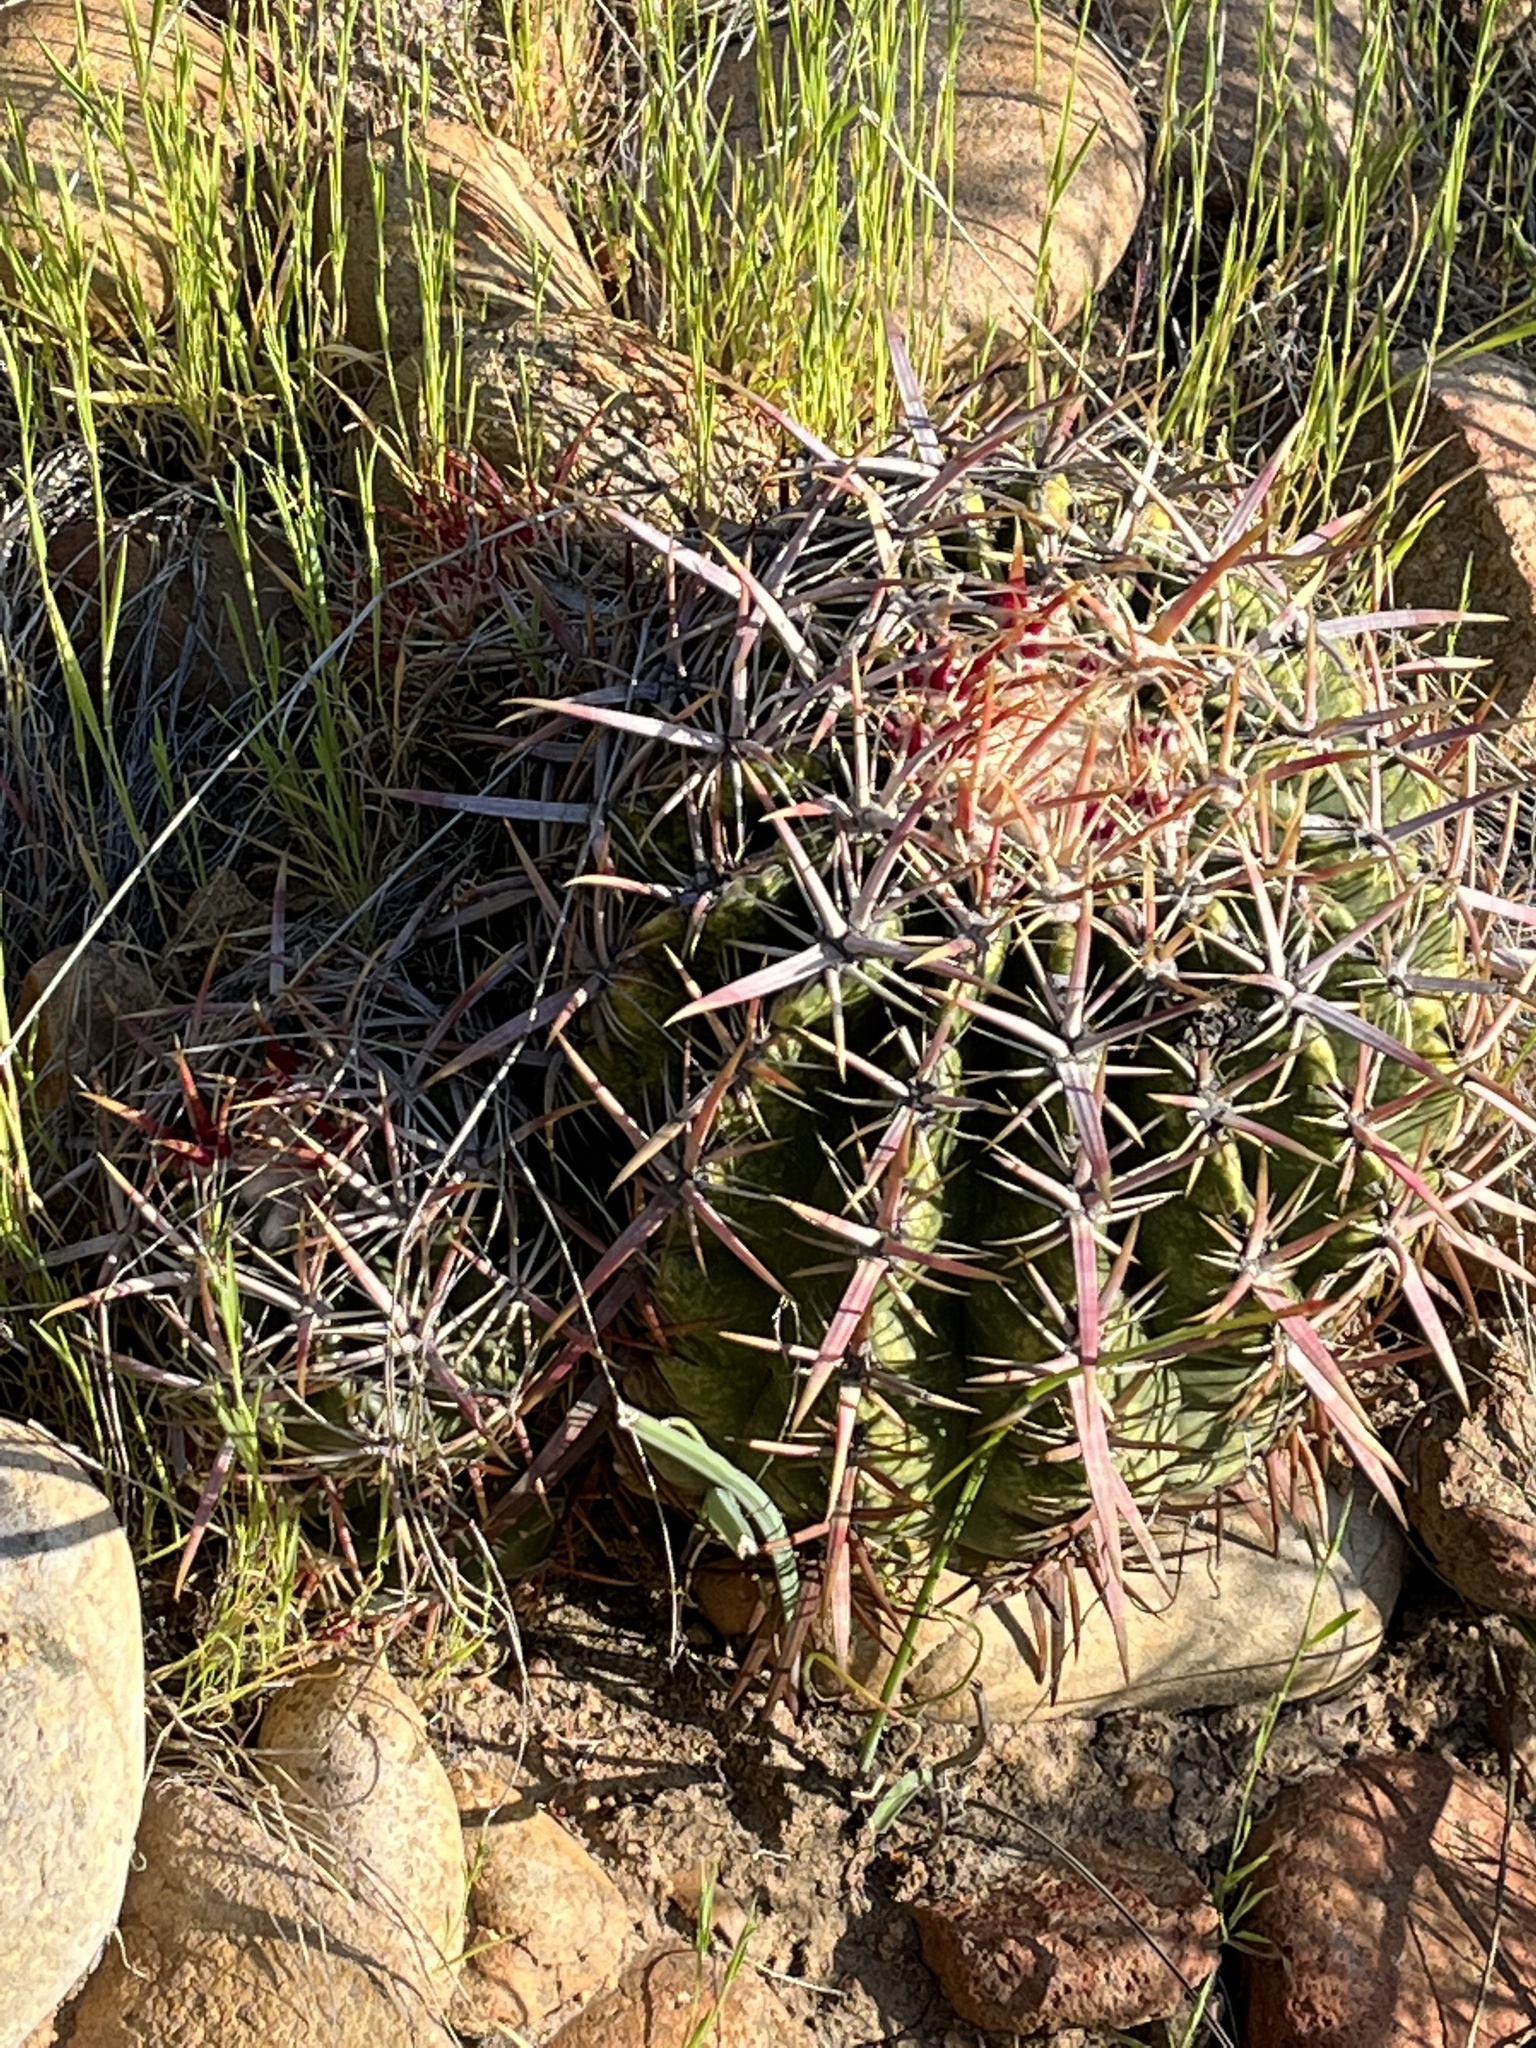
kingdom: Plantae
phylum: Tracheophyta
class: Magnoliopsida
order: Caryophyllales
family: Cactaceae
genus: Ferocactus
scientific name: Ferocactus viridescens
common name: San diego barrel cactus
